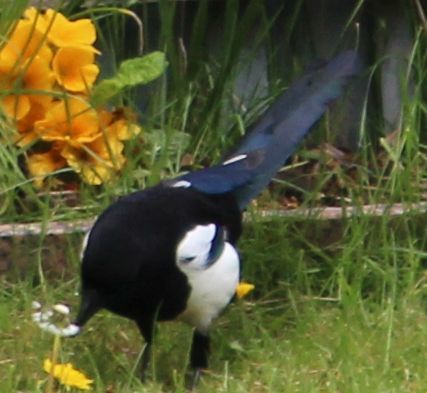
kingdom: Animalia
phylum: Chordata
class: Aves
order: Passeriformes
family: Corvidae
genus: Pica
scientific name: Pica pica
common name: Eurasian magpie
